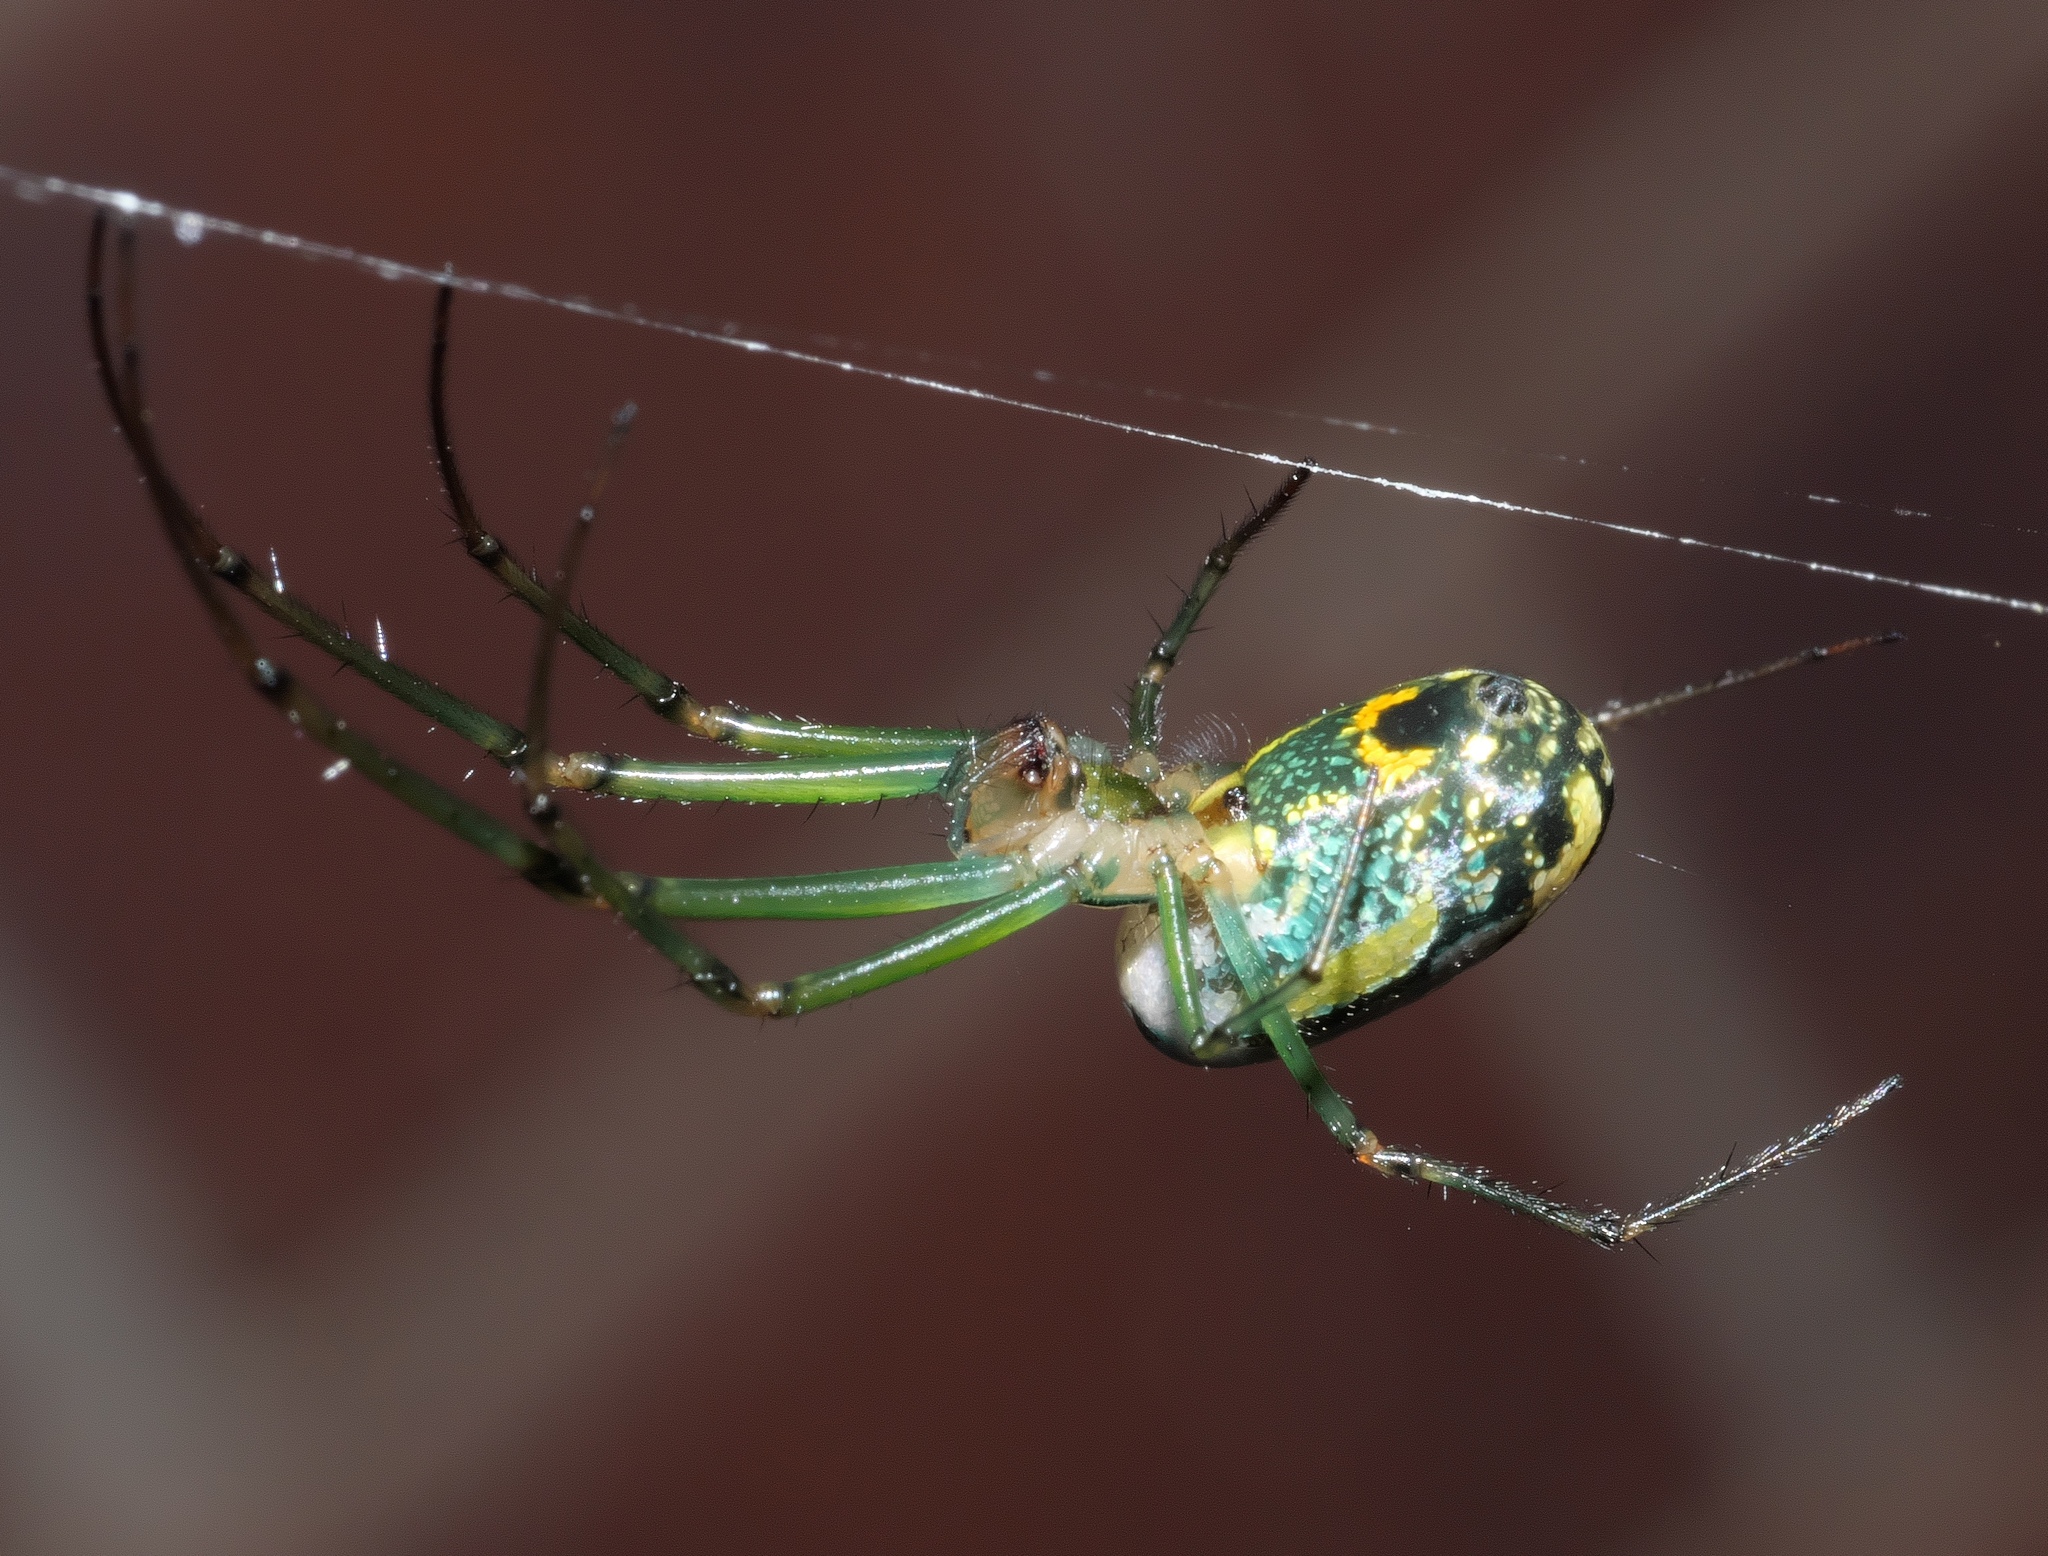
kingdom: Animalia
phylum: Arthropoda
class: Arachnida
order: Araneae
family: Tetragnathidae
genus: Leucauge
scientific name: Leucauge venusta
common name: Longjawed orb weavers
